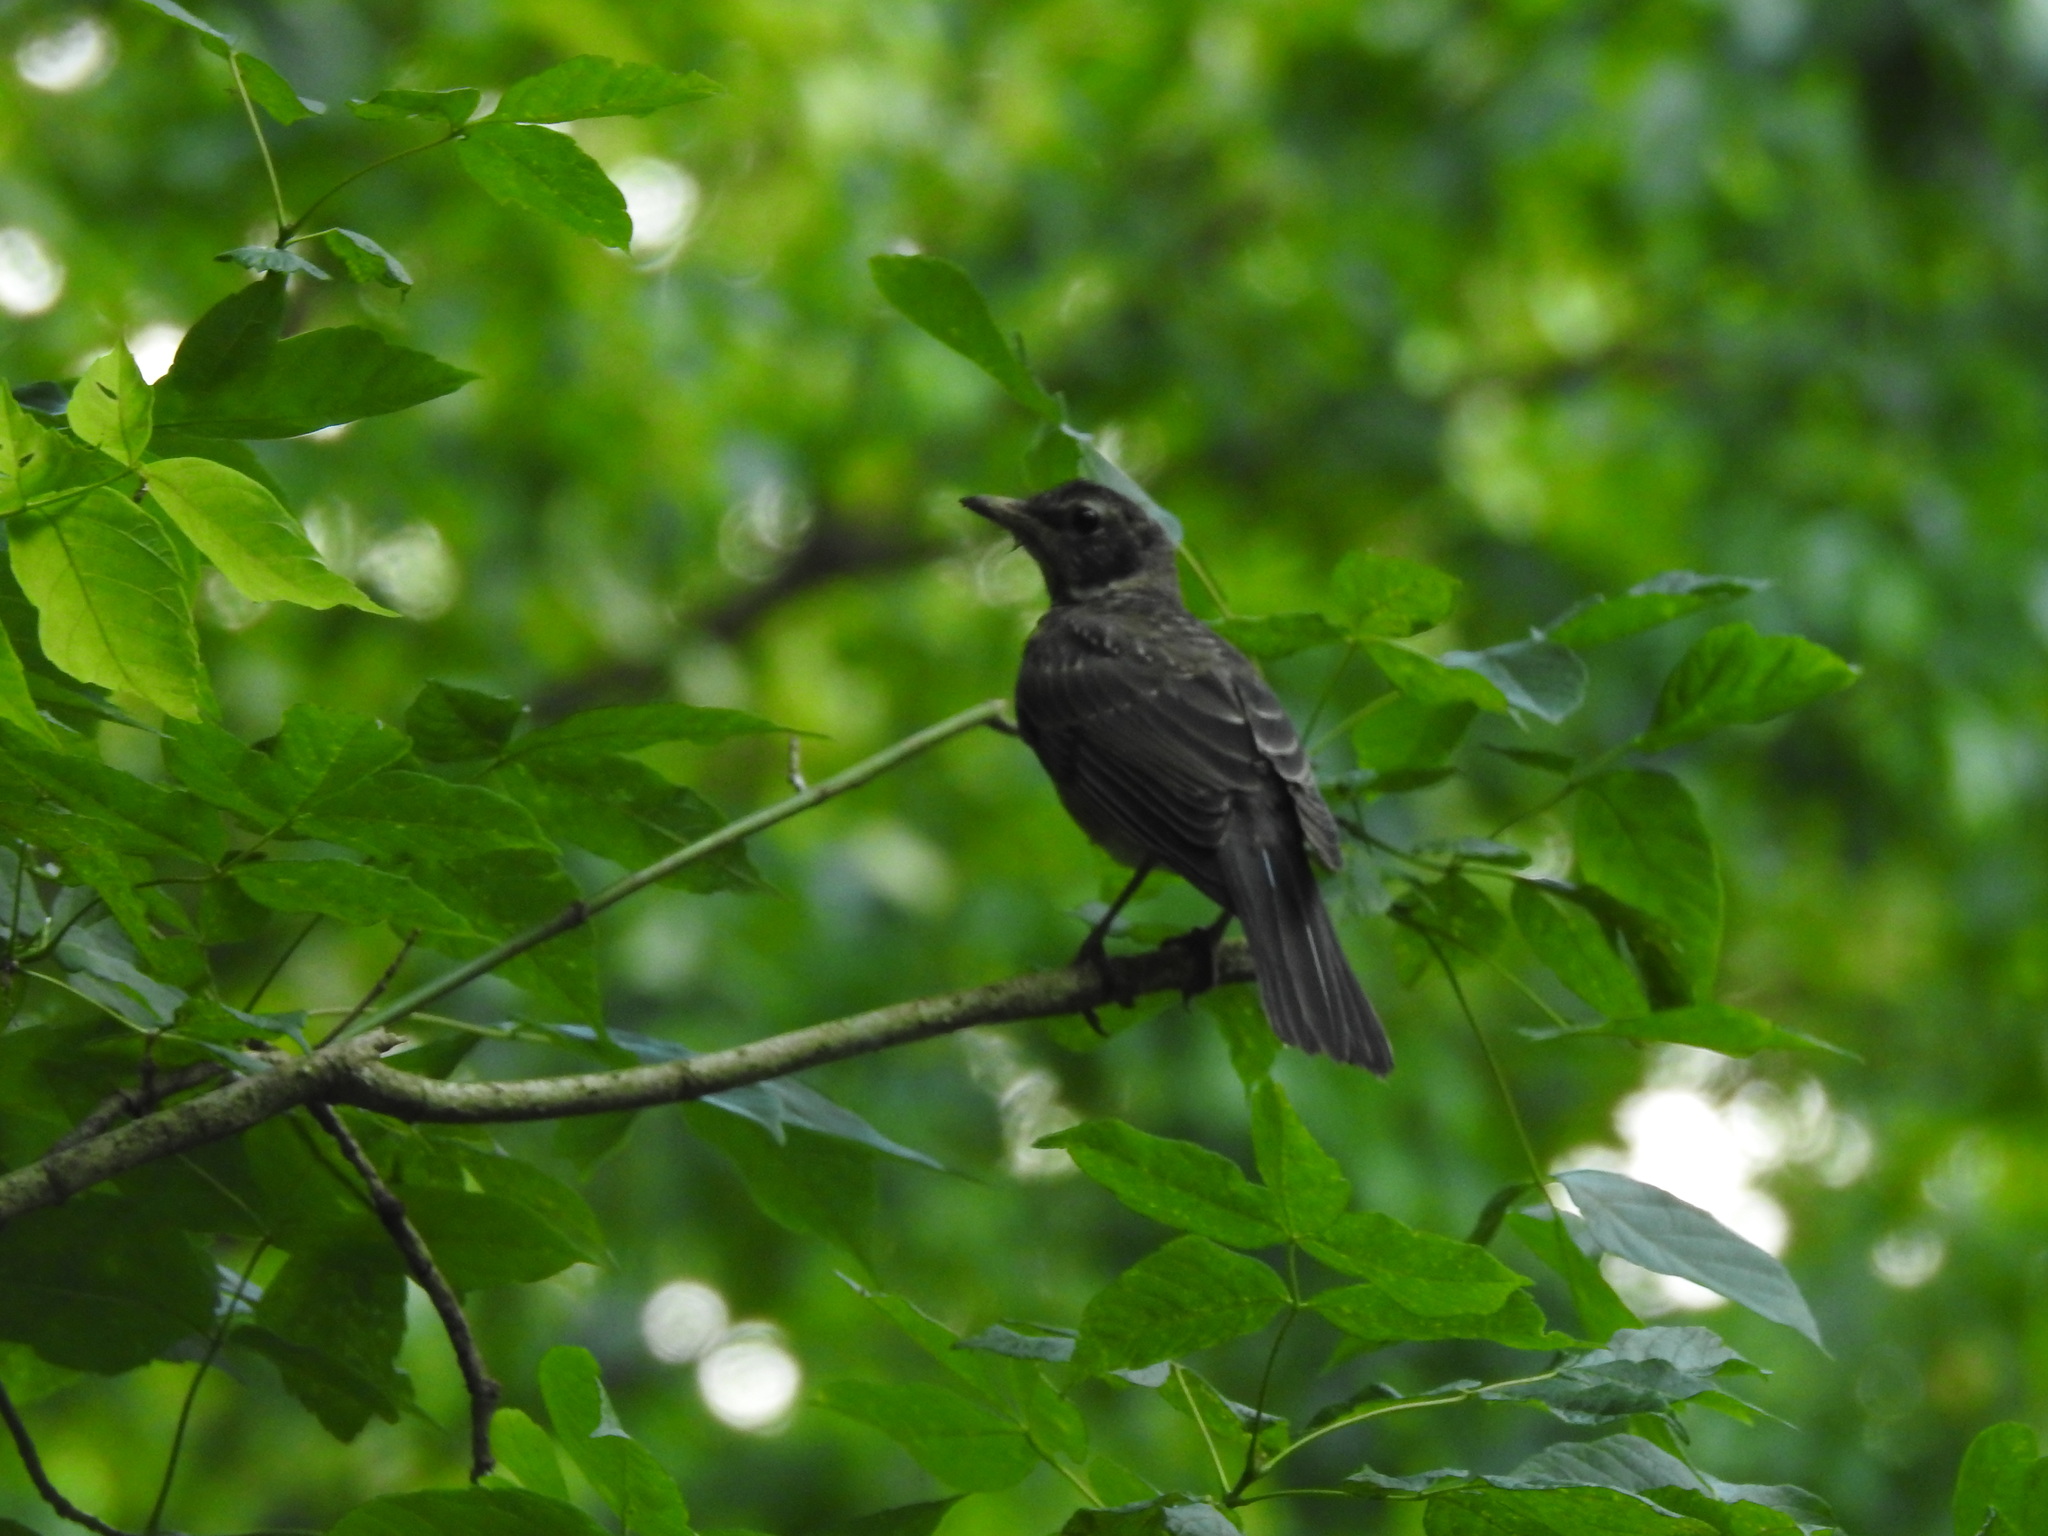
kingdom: Animalia
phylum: Chordata
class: Aves
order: Passeriformes
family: Turdidae
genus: Turdus
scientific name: Turdus migratorius
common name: American robin
